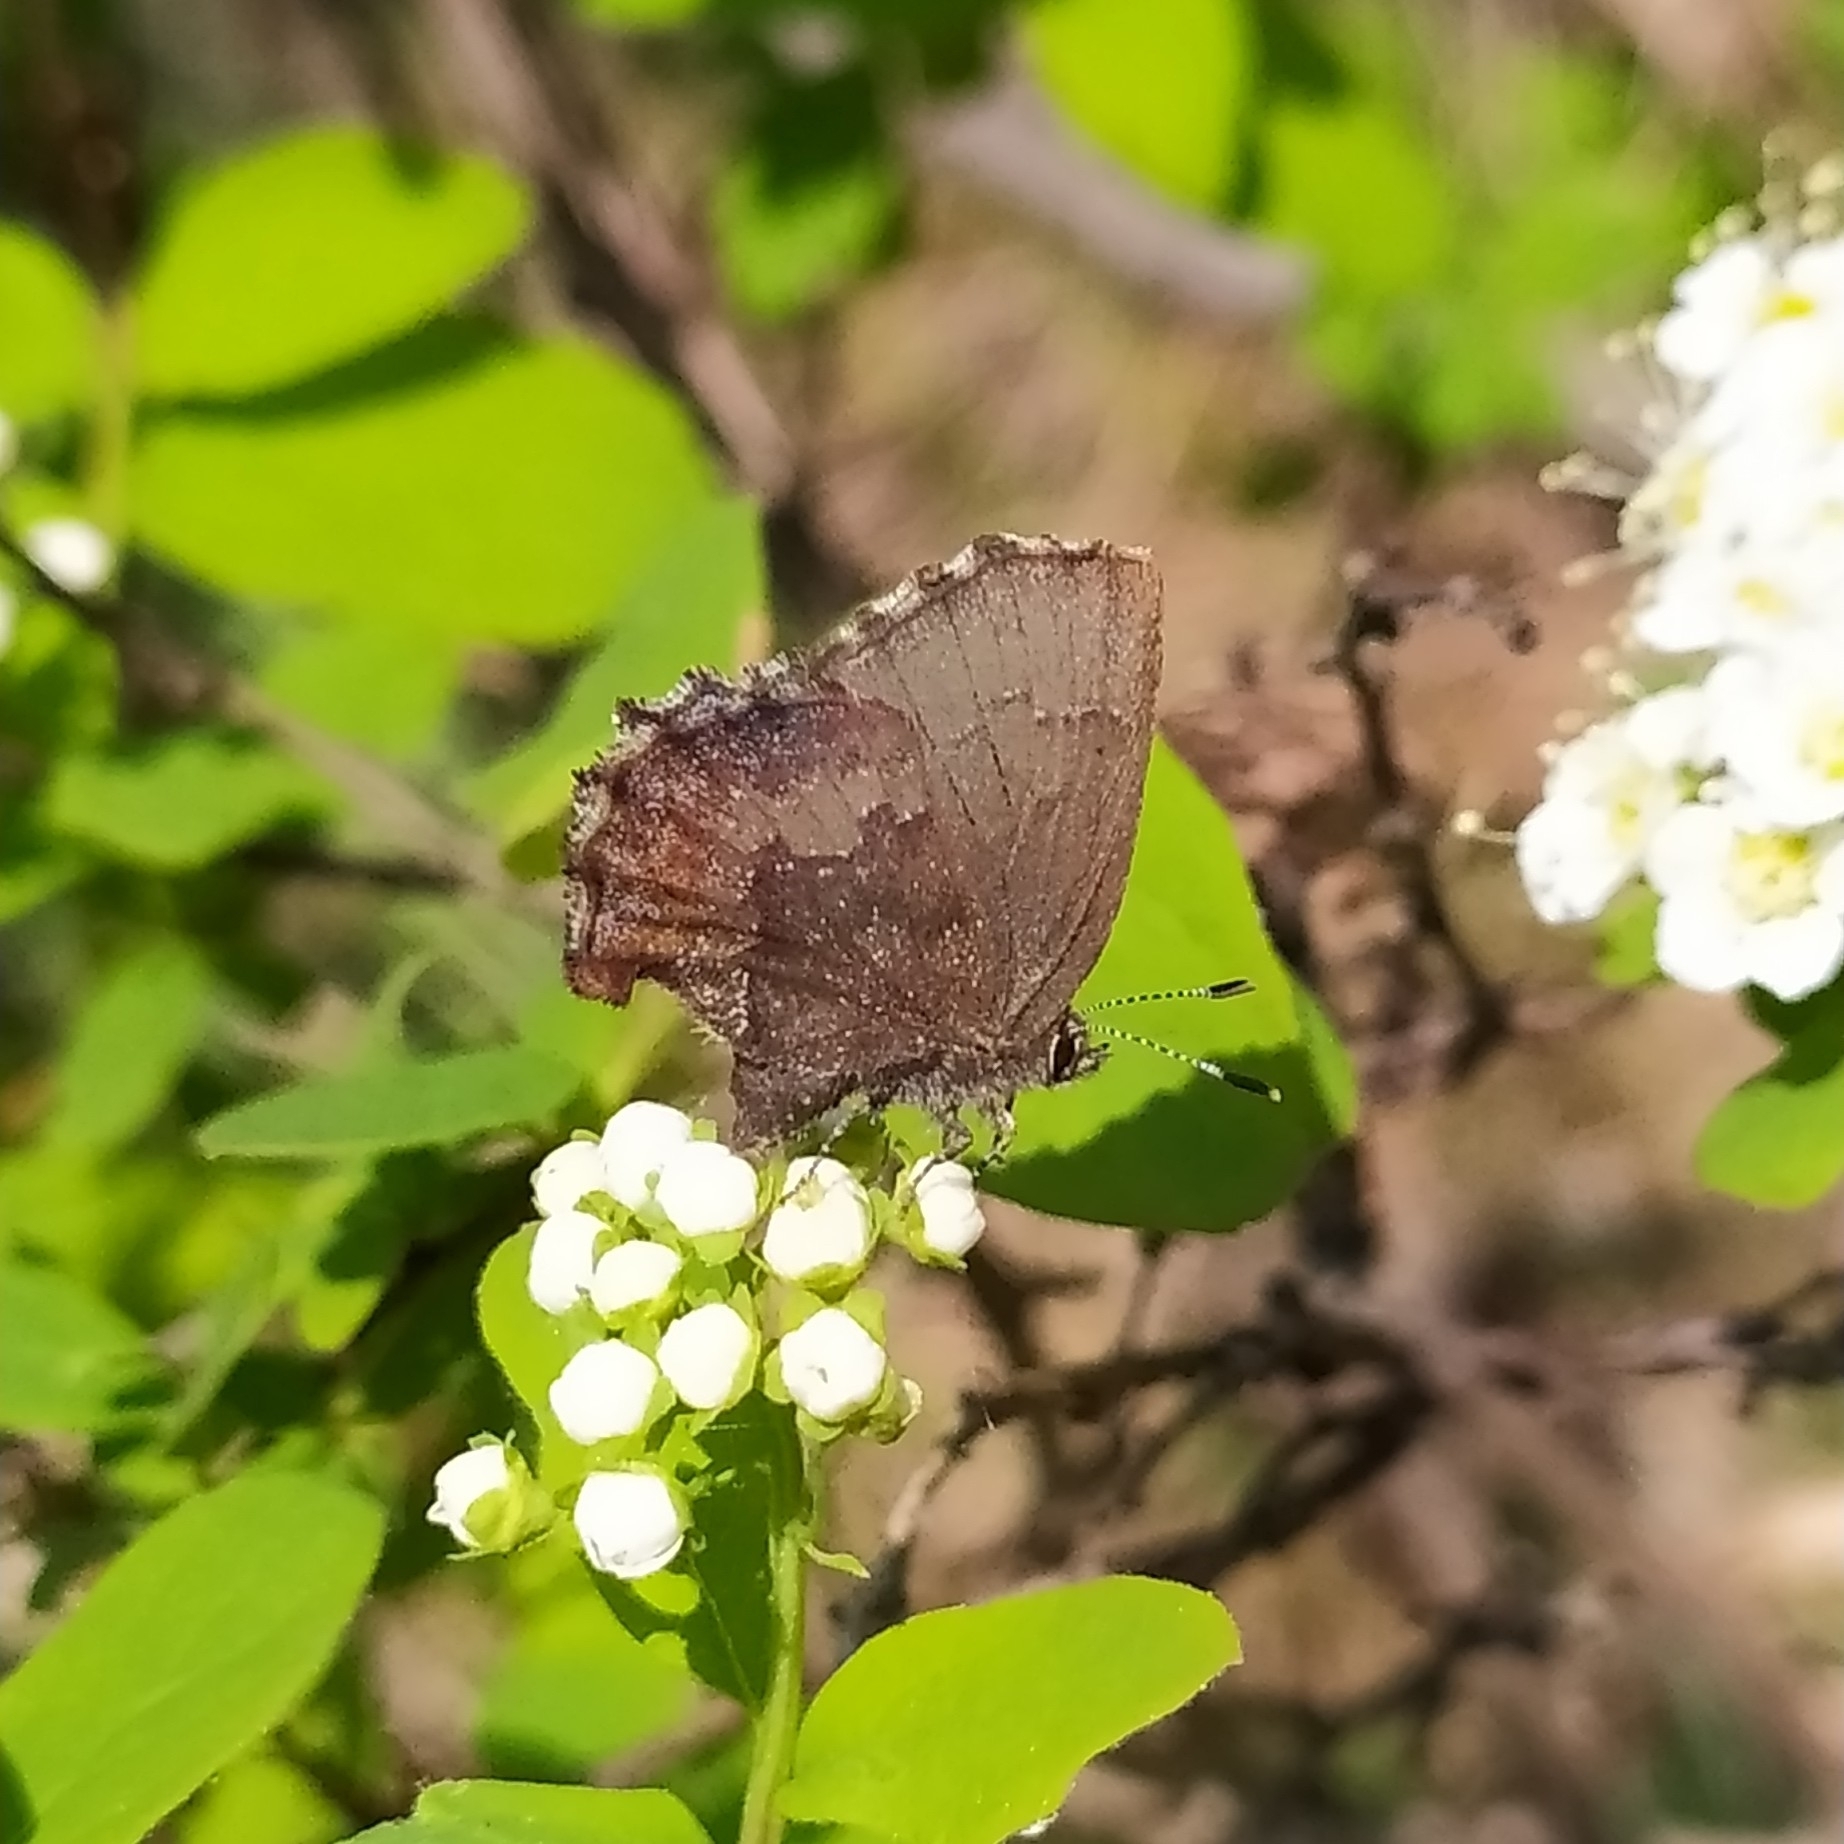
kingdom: Animalia
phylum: Arthropoda
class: Insecta
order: Lepidoptera
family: Lycaenidae
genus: Ginzia
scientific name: Ginzia Ahlbergia frivaldszkyi
